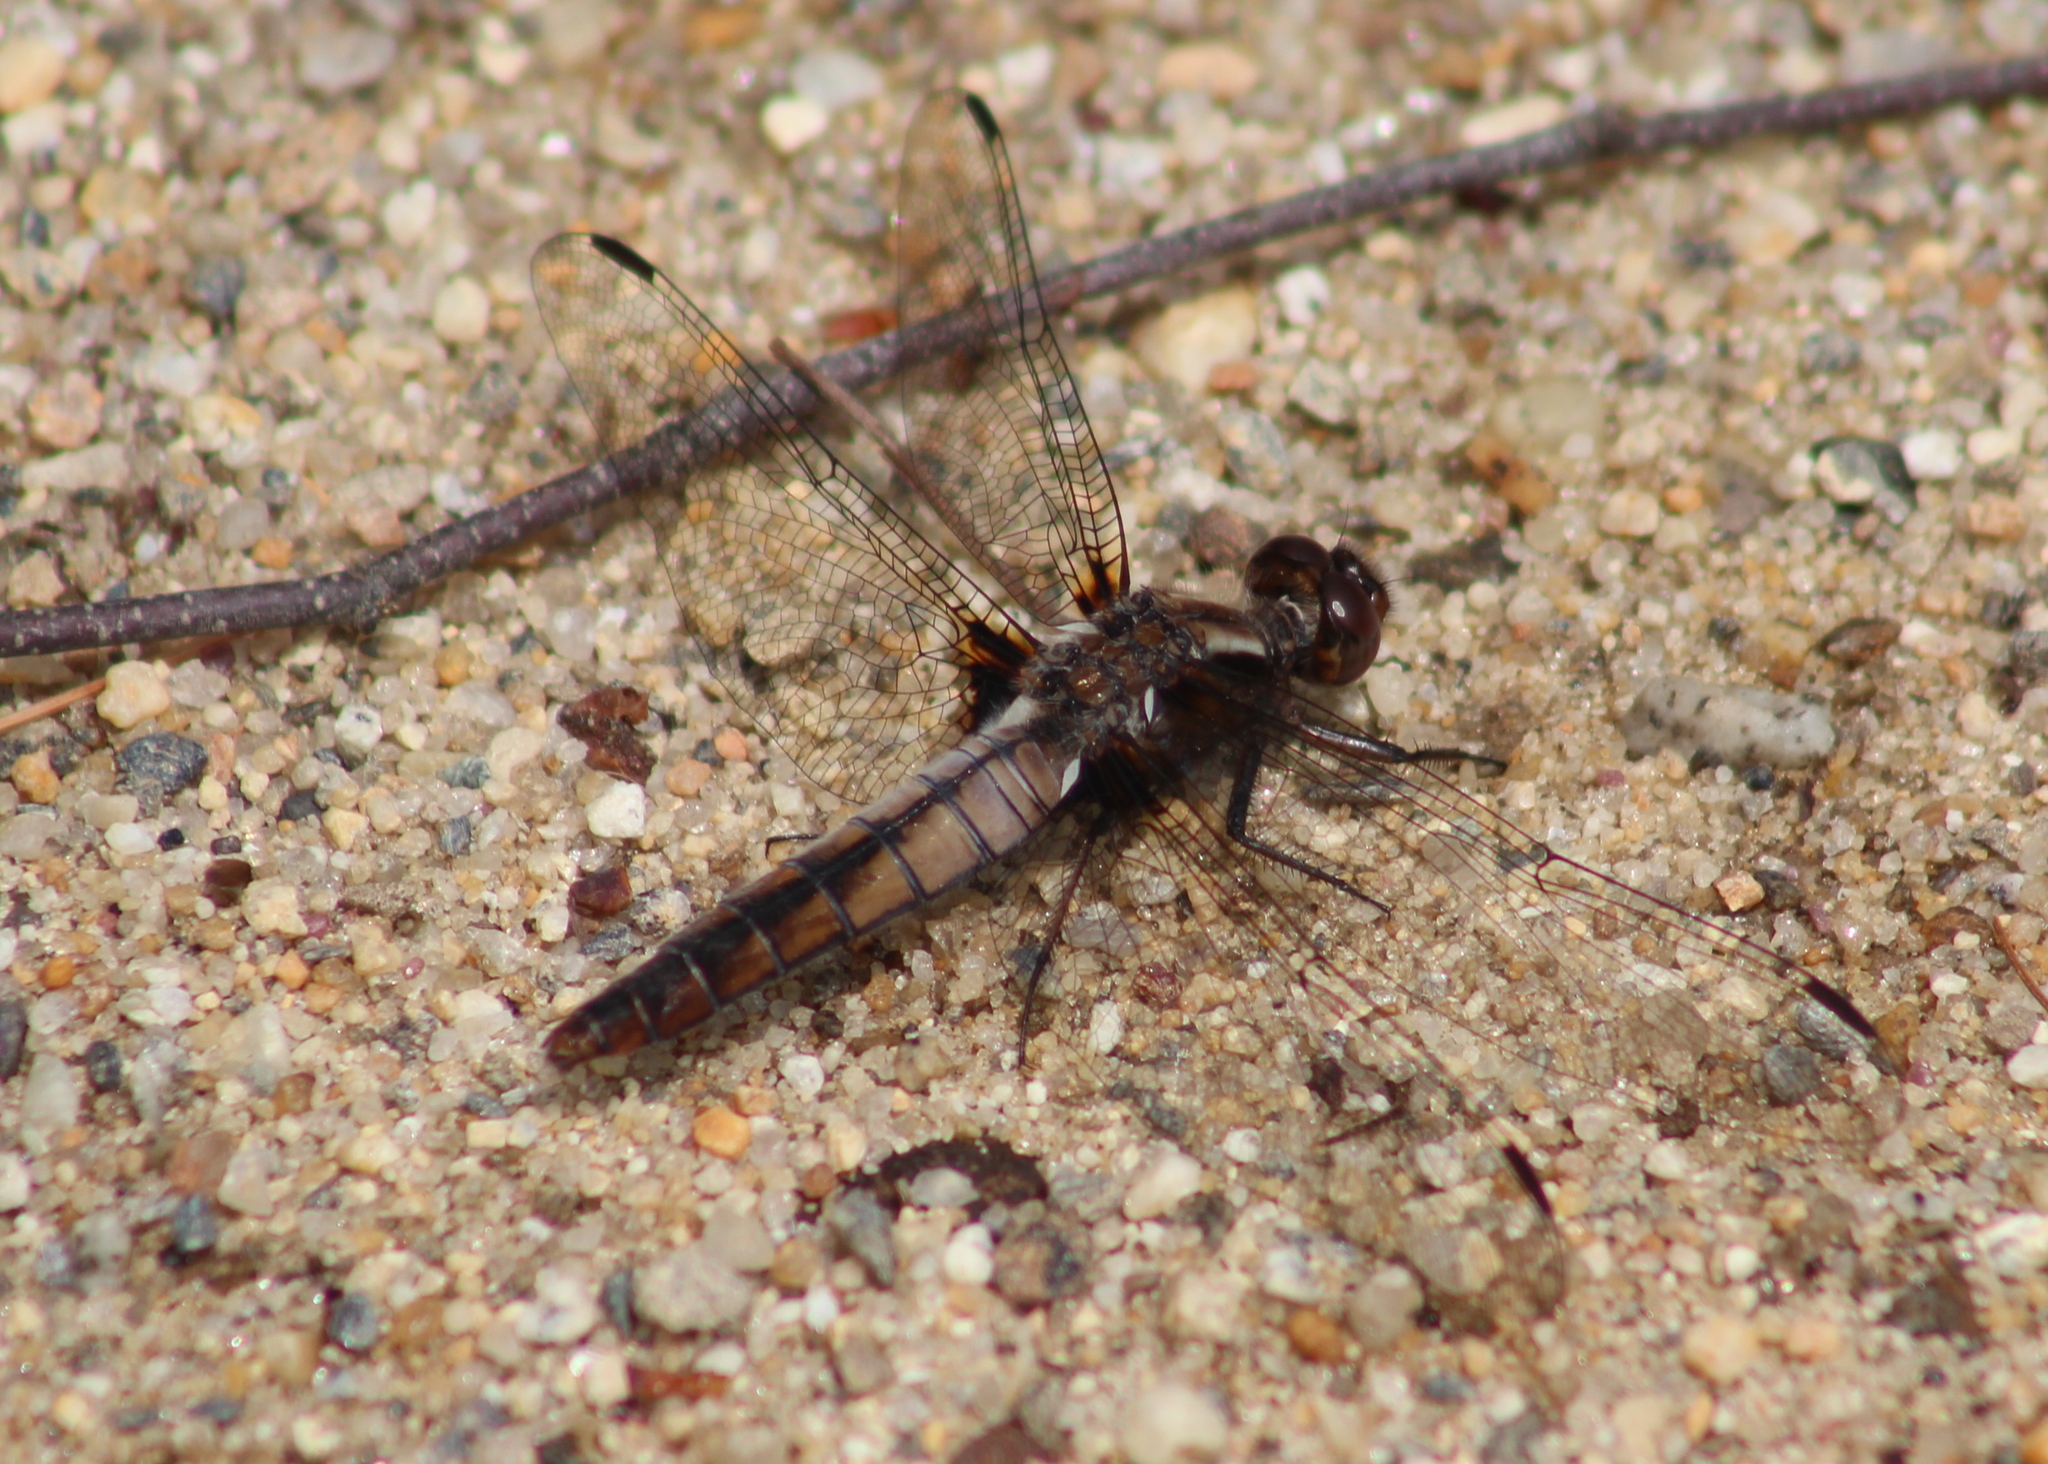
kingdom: Animalia
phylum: Arthropoda
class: Insecta
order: Odonata
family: Libellulidae
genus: Ladona
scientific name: Ladona julia
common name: Chalk-fronted corporal
